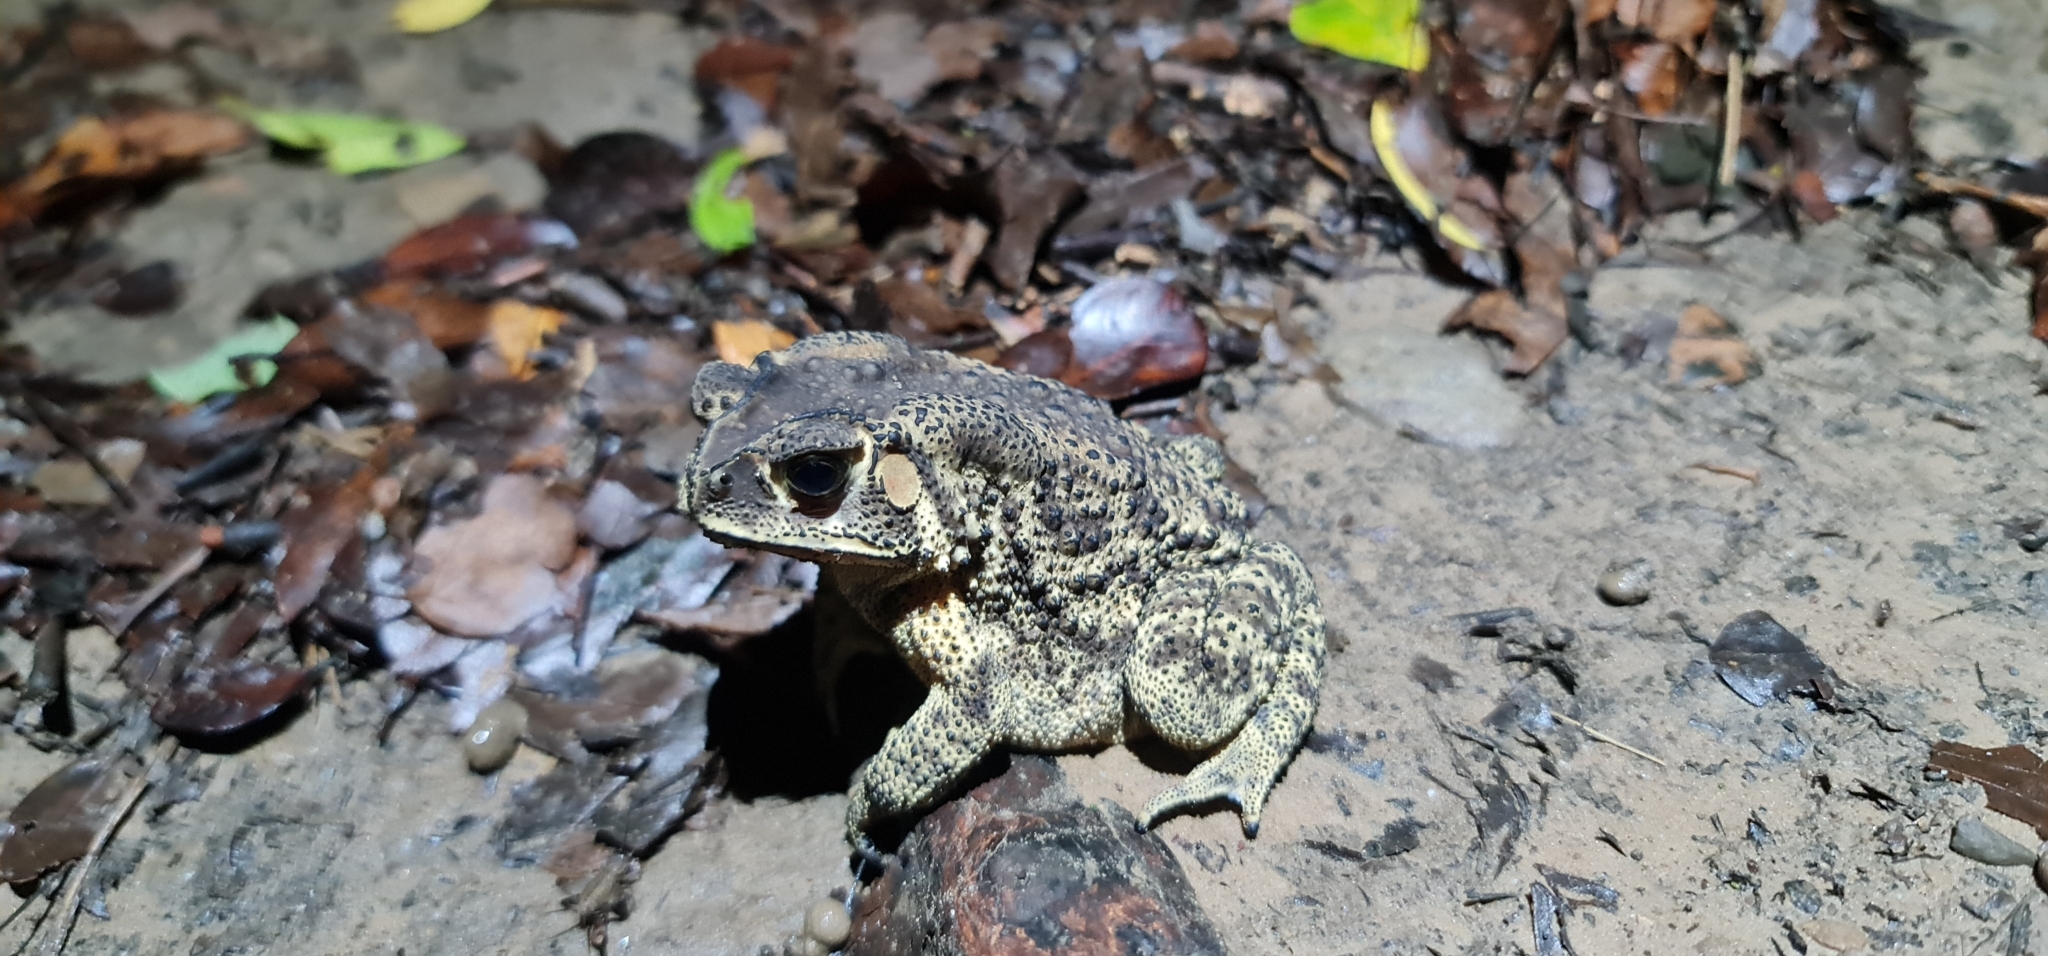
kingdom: Animalia
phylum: Chordata
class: Amphibia
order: Anura
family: Bufonidae
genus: Duttaphrynus
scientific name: Duttaphrynus melanostictus
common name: Common sunda toad
